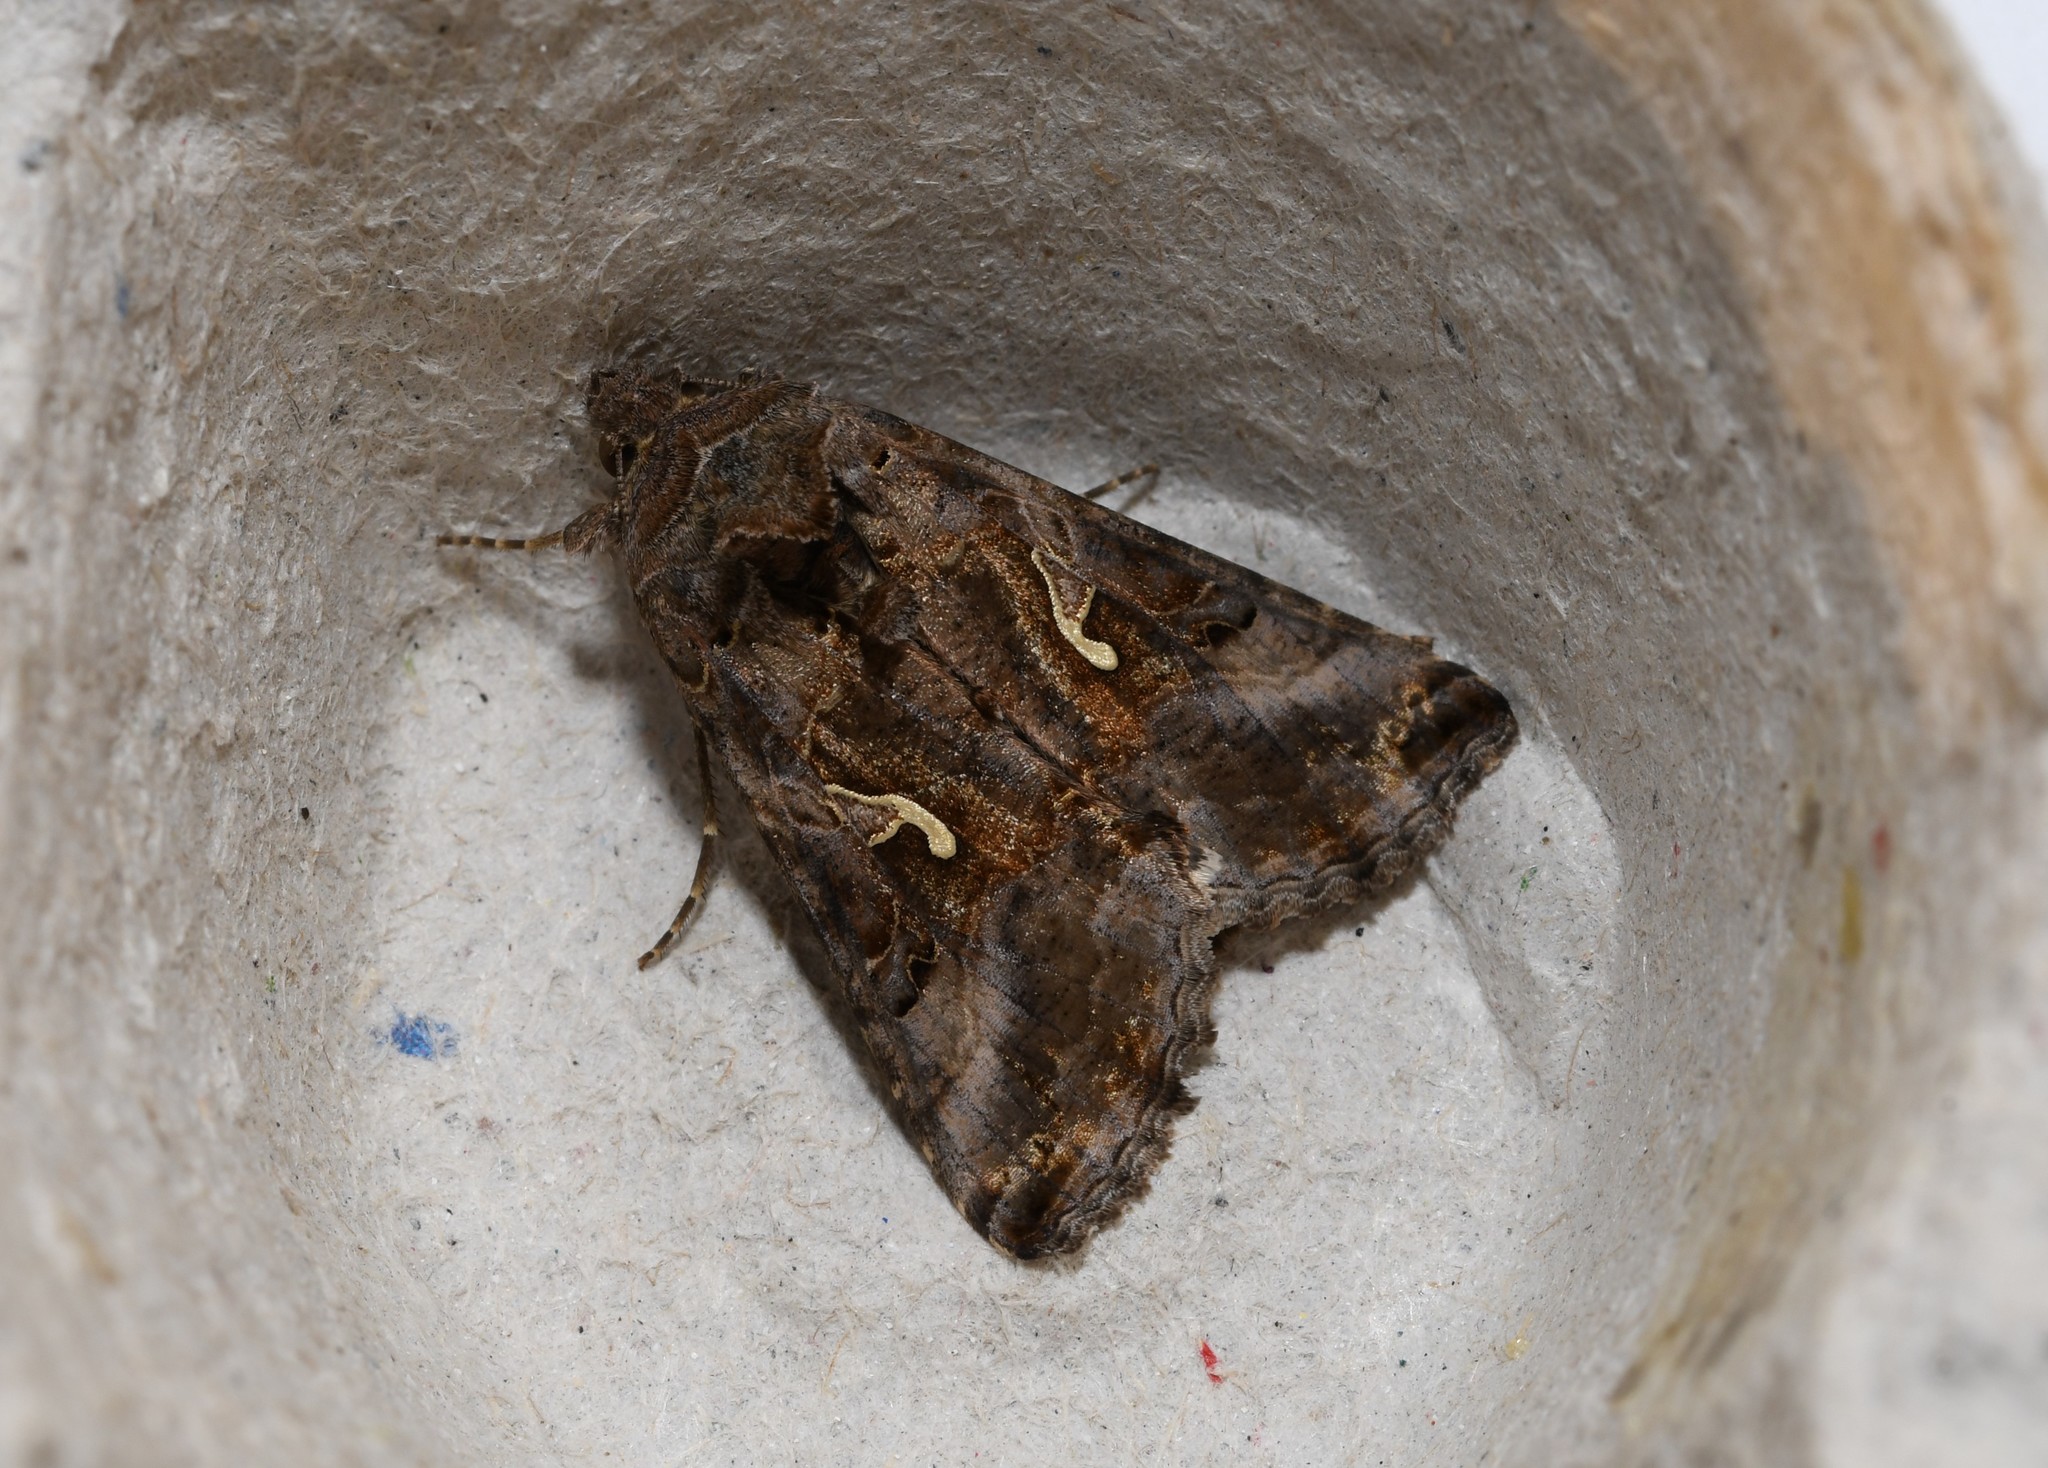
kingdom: Animalia
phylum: Arthropoda
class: Insecta
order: Lepidoptera
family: Noctuidae
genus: Autographa
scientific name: Autographa gamma
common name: Silver y
